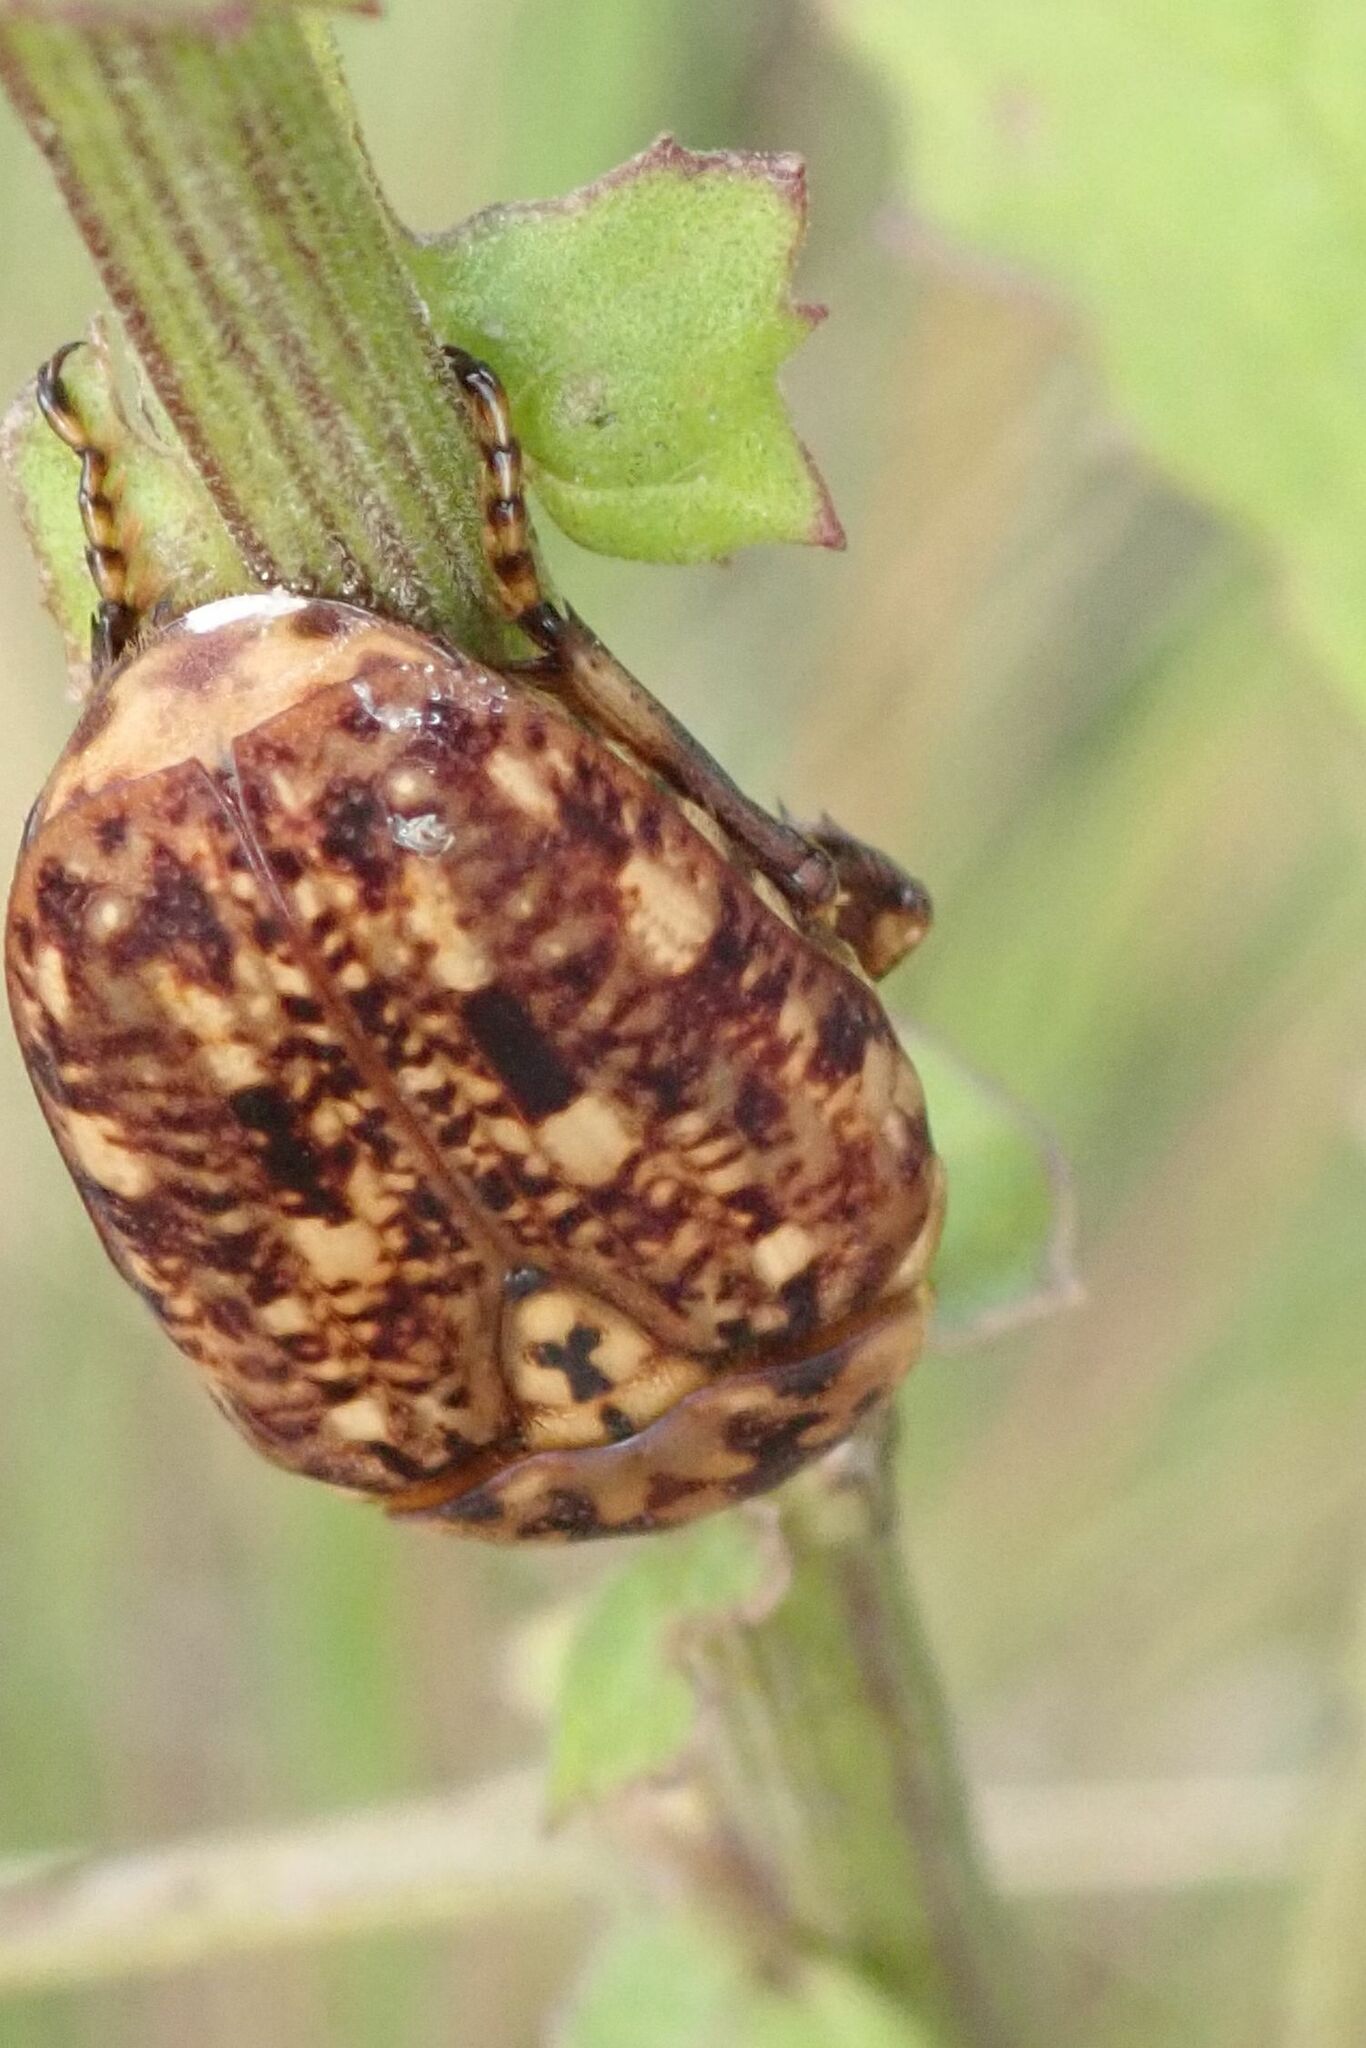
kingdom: Animalia
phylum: Arthropoda
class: Insecta
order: Coleoptera
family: Scarabaeidae
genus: Porphyronota
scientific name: Porphyronota hebraea
